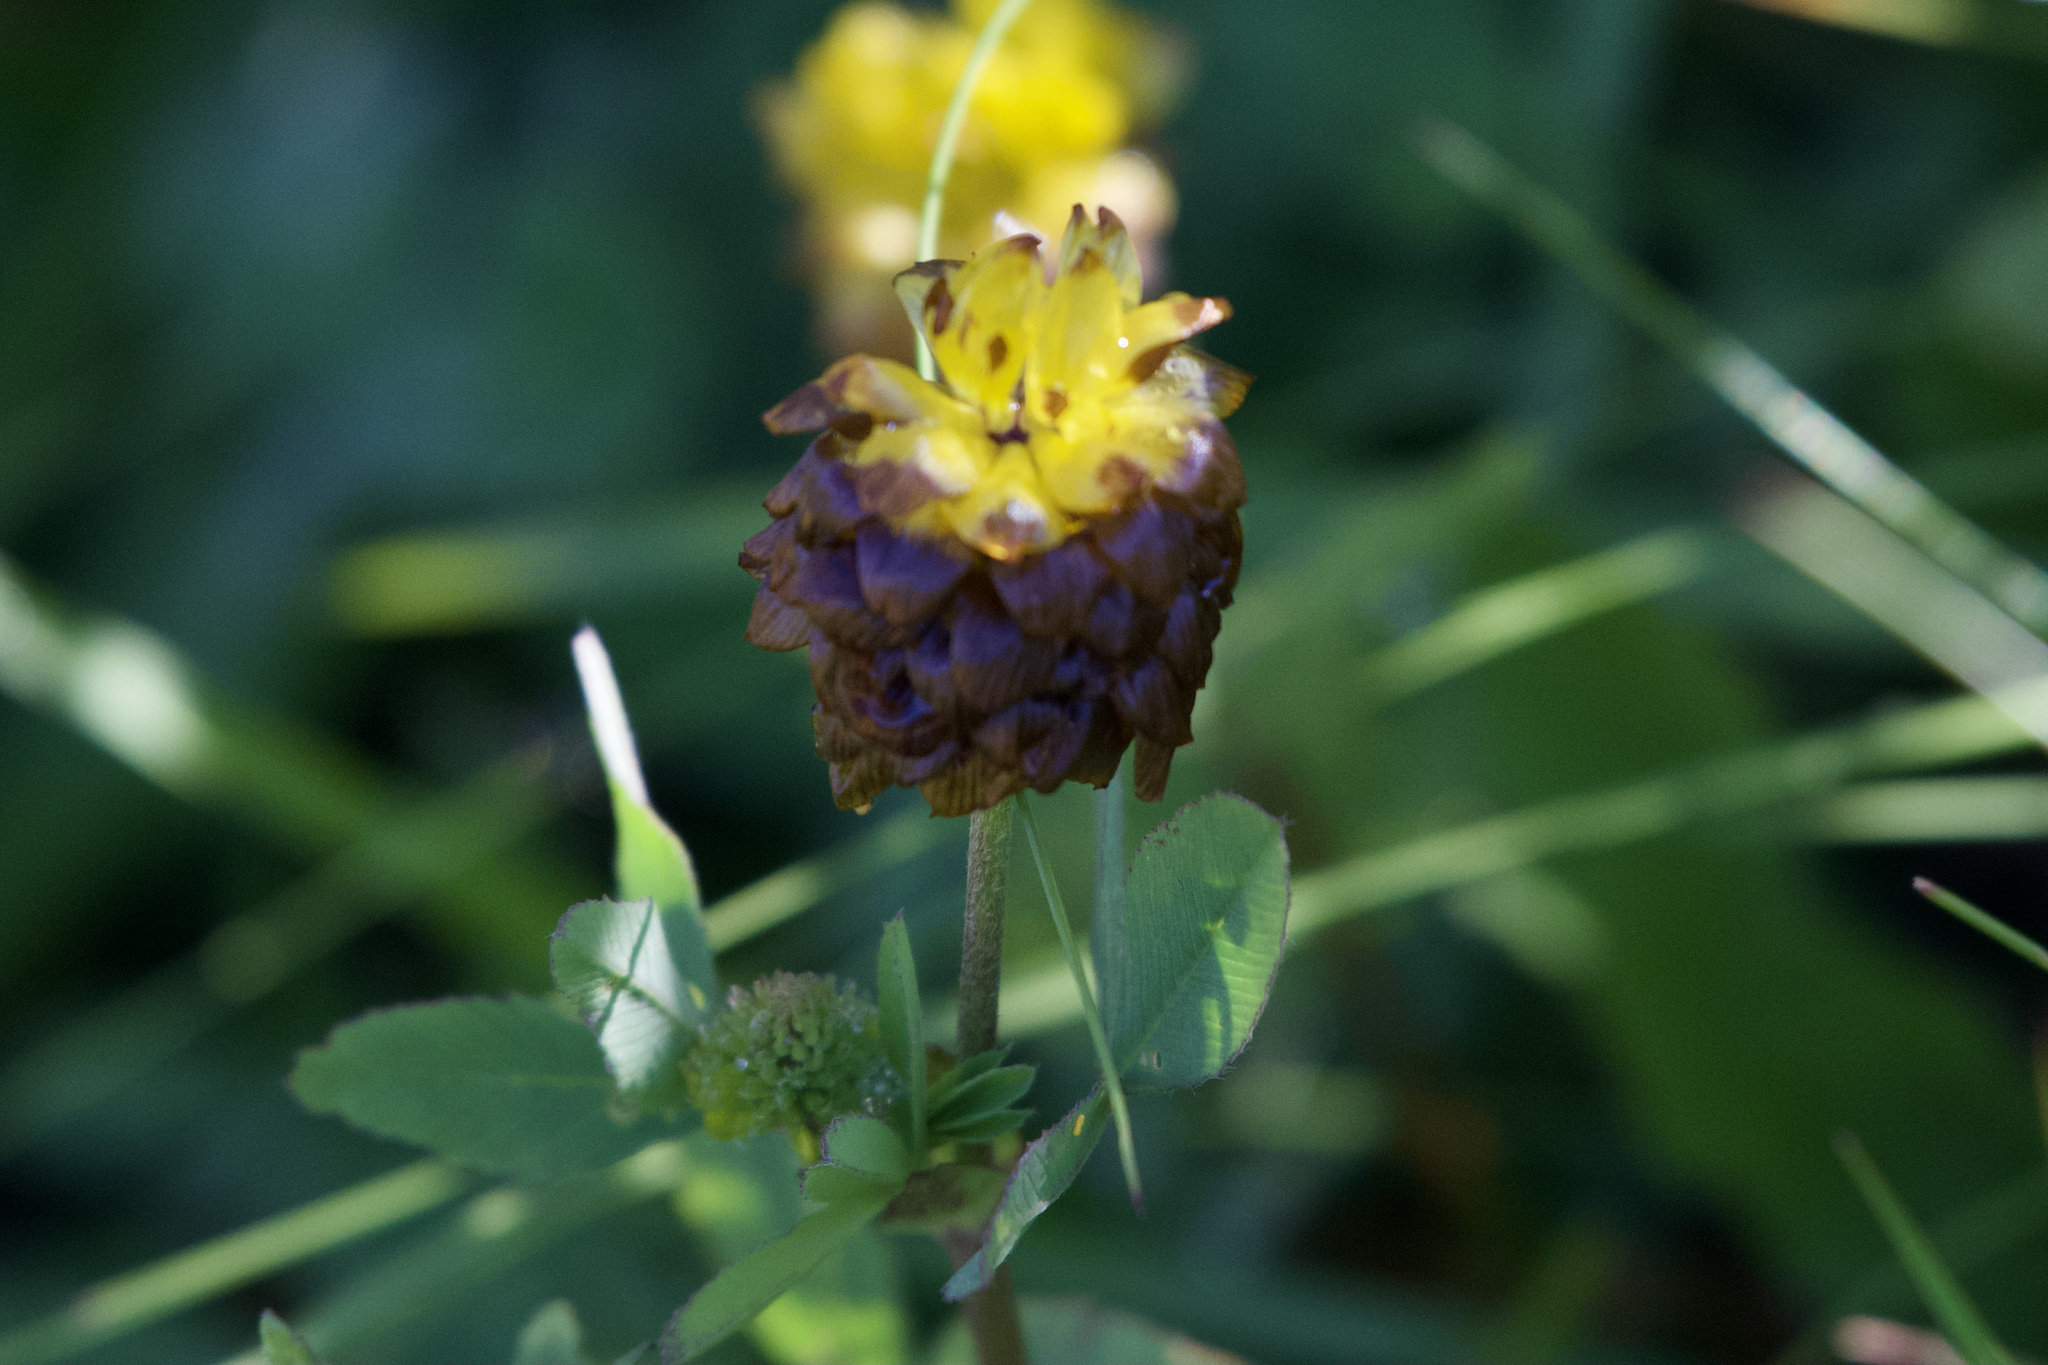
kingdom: Plantae
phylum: Tracheophyta
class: Magnoliopsida
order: Fabales
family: Fabaceae
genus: Trifolium
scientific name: Trifolium badium
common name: Brown clover
